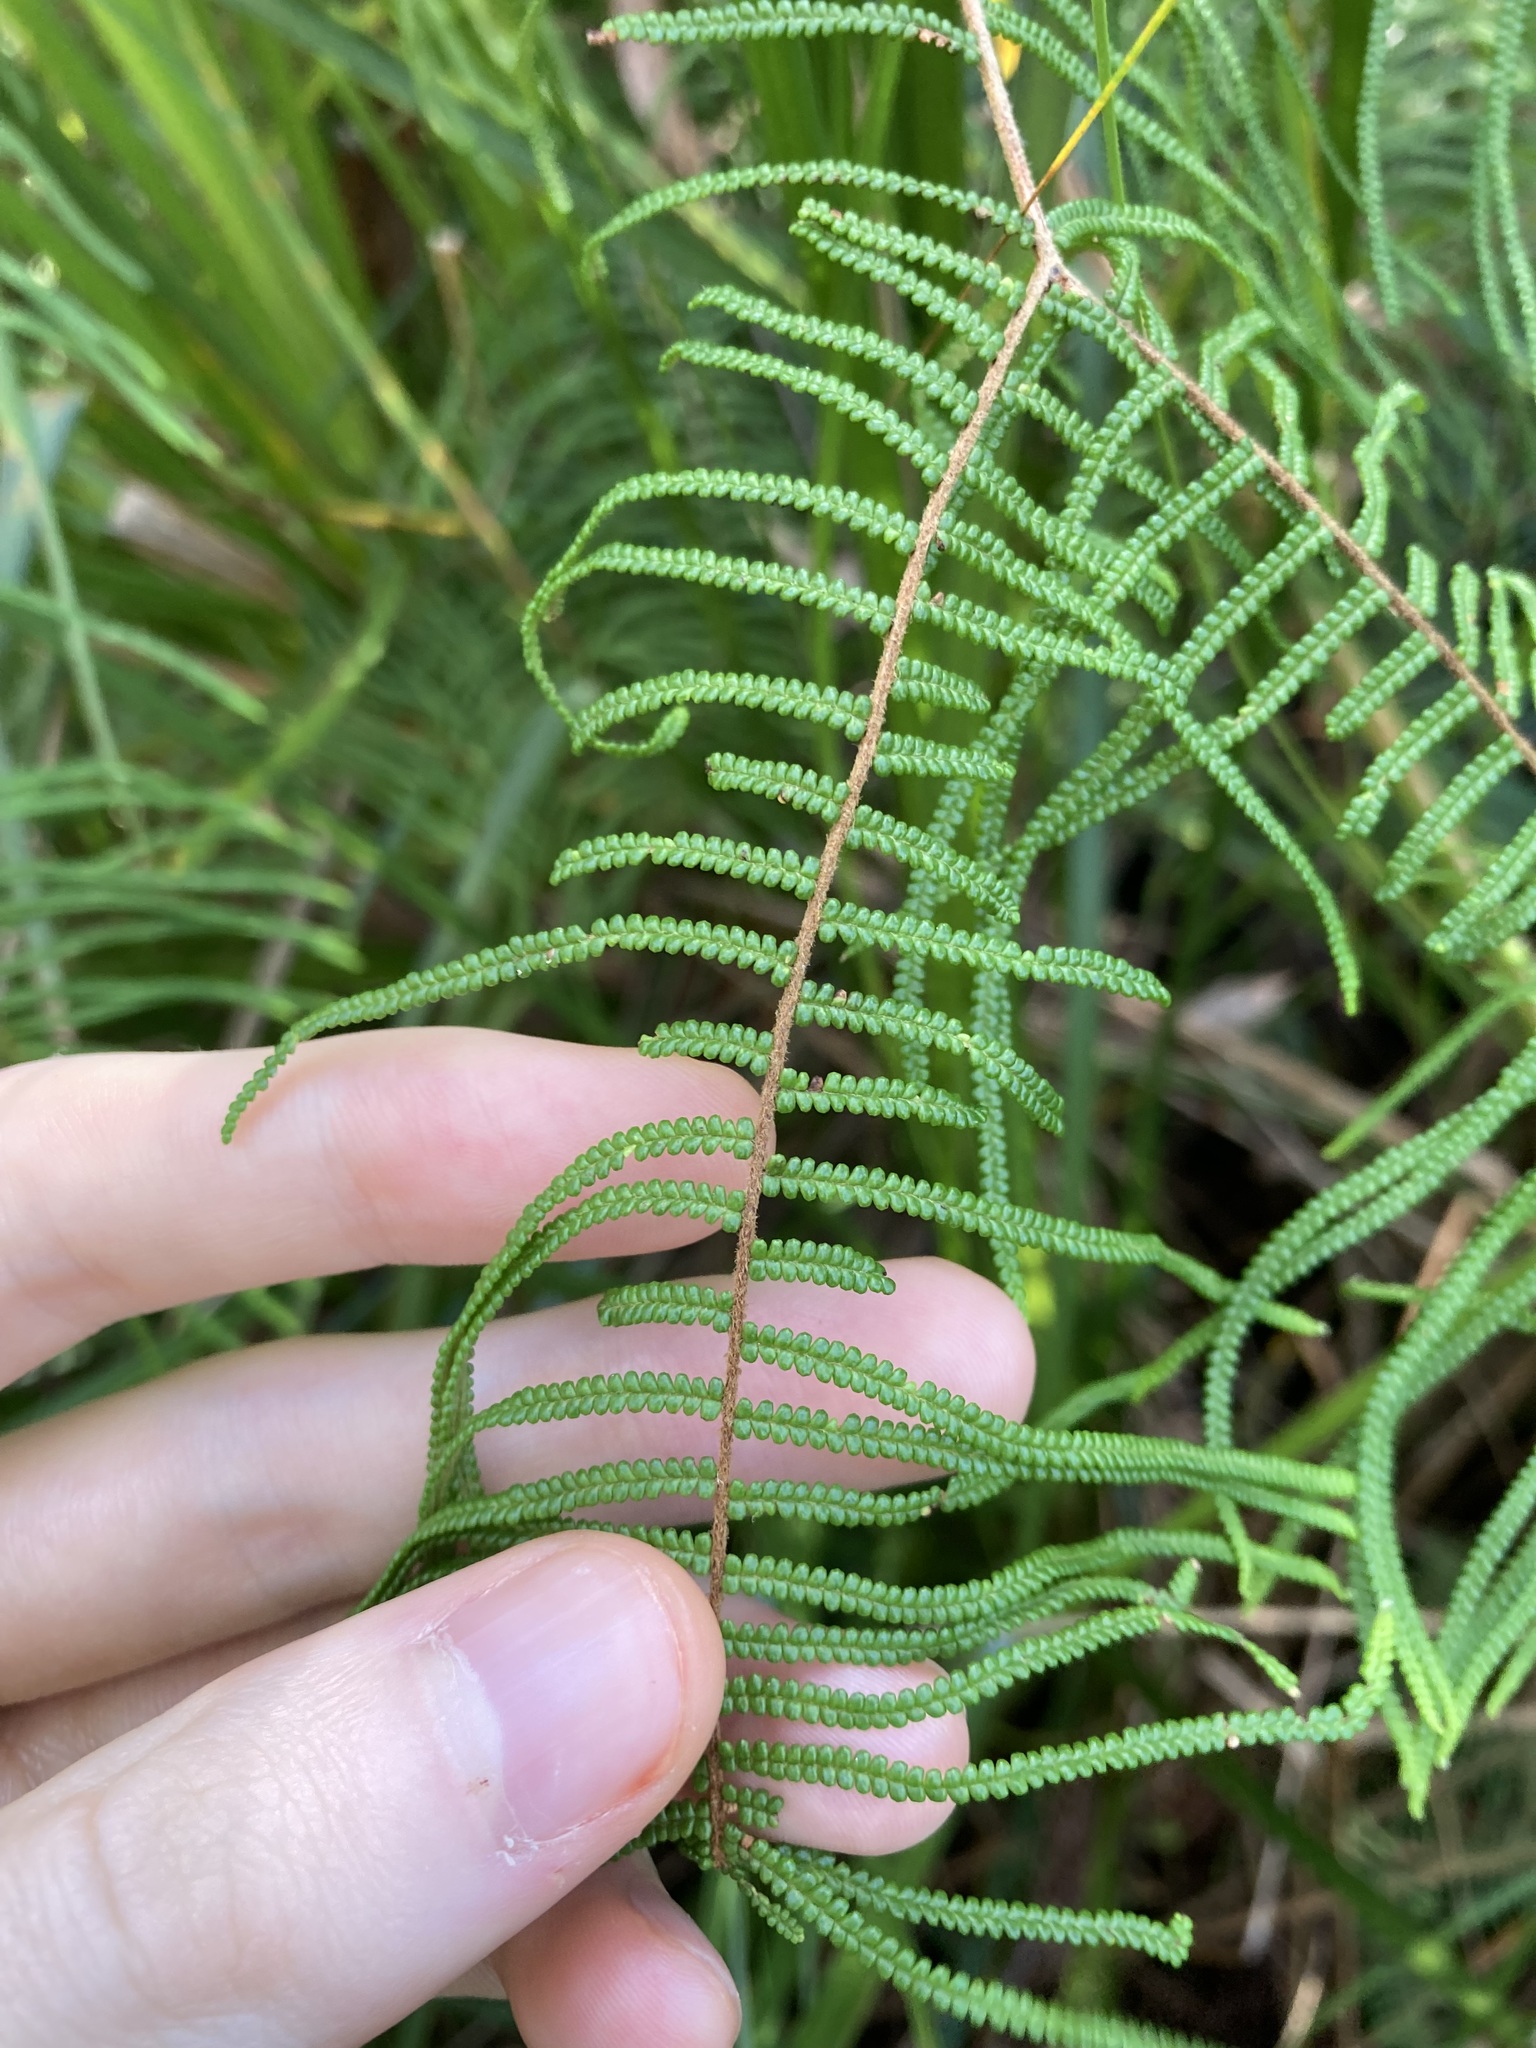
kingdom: Plantae
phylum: Tracheophyta
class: Polypodiopsida
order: Gleicheniales
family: Gleicheniaceae
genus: Gleichenia
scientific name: Gleichenia dicarpa
